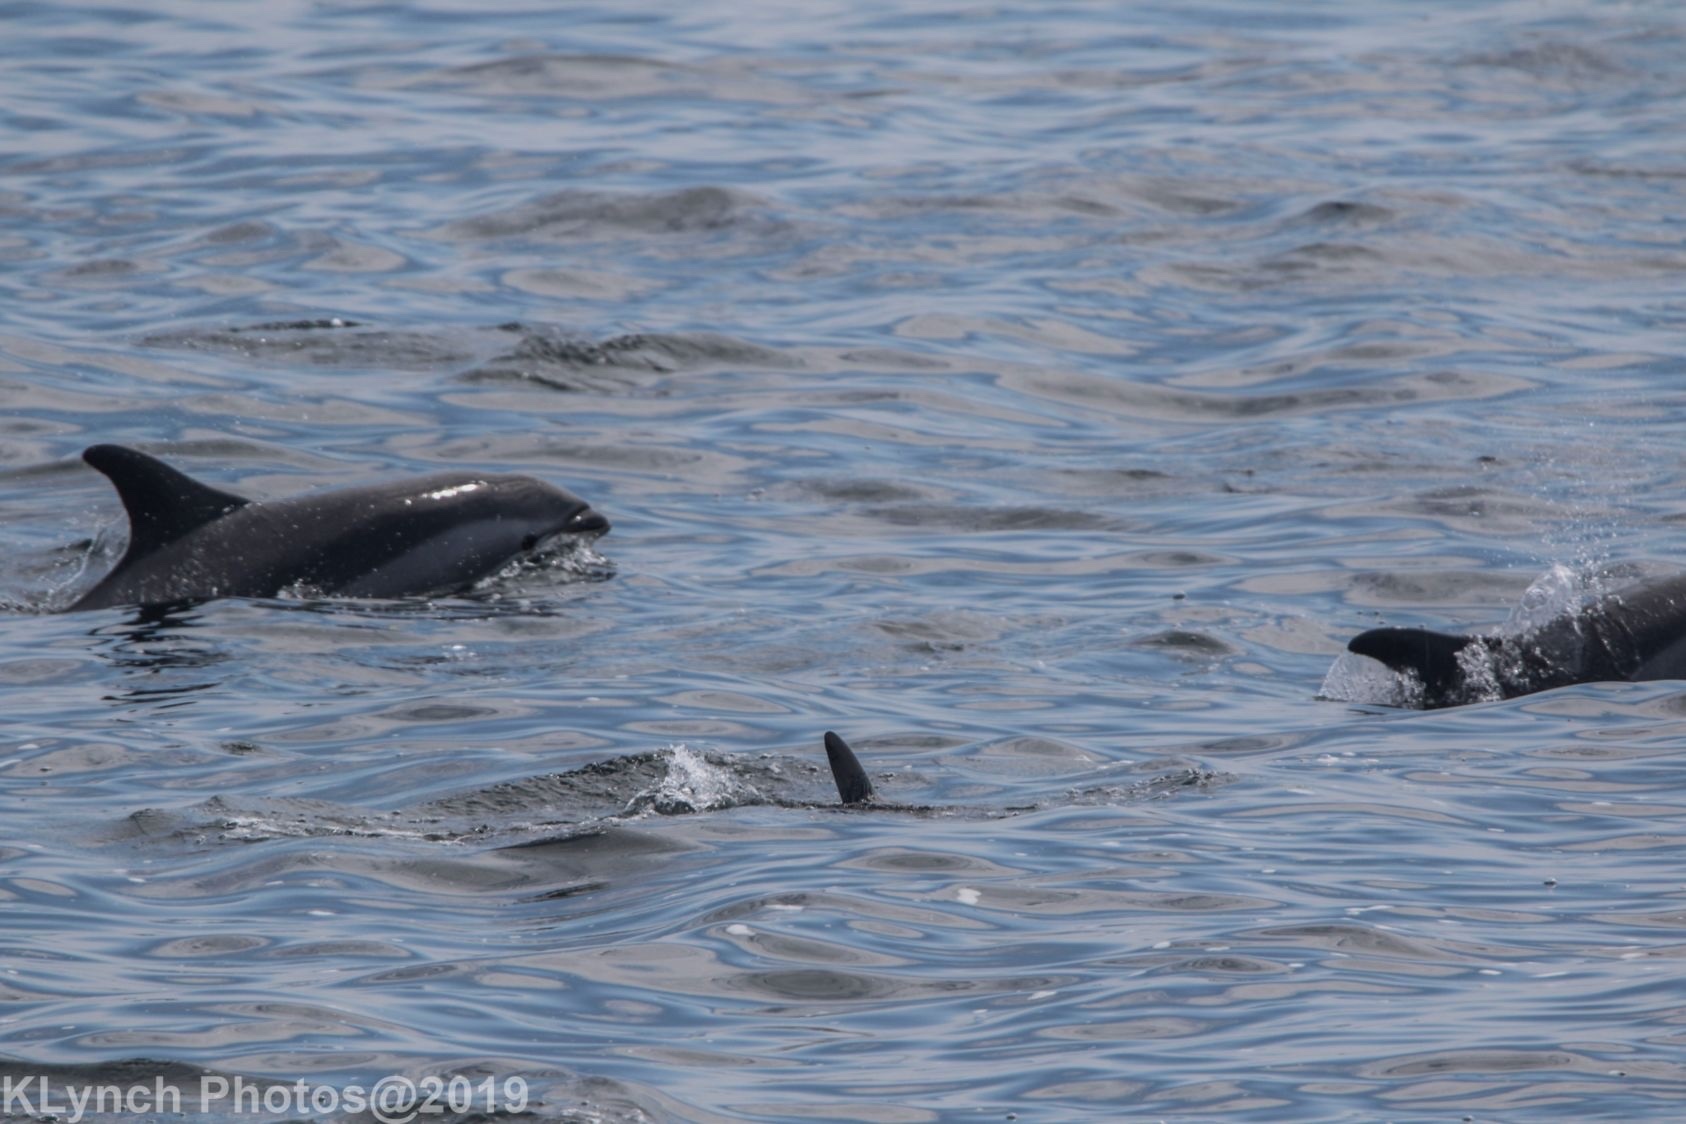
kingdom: Animalia
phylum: Chordata
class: Mammalia
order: Cetacea
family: Delphinidae
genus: Lagenorhynchus
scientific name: Lagenorhynchus acutus
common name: Atlantic white-sided dolphin
